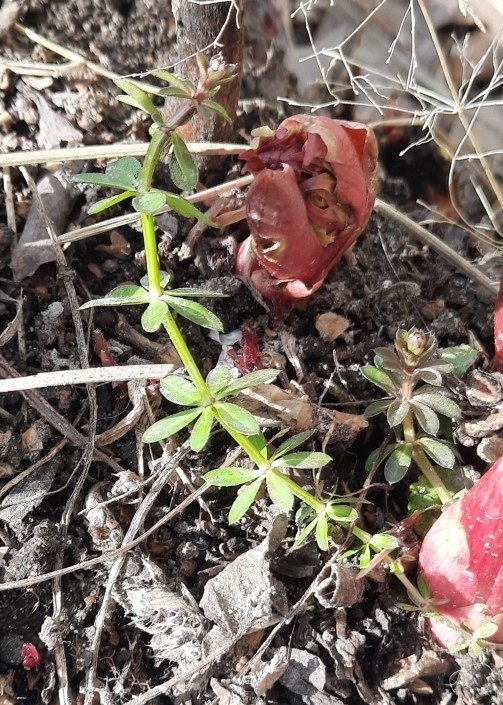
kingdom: Plantae
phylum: Tracheophyta
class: Magnoliopsida
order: Gentianales
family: Rubiaceae
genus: Galium
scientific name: Galium mollugo
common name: Hedge bedstraw
